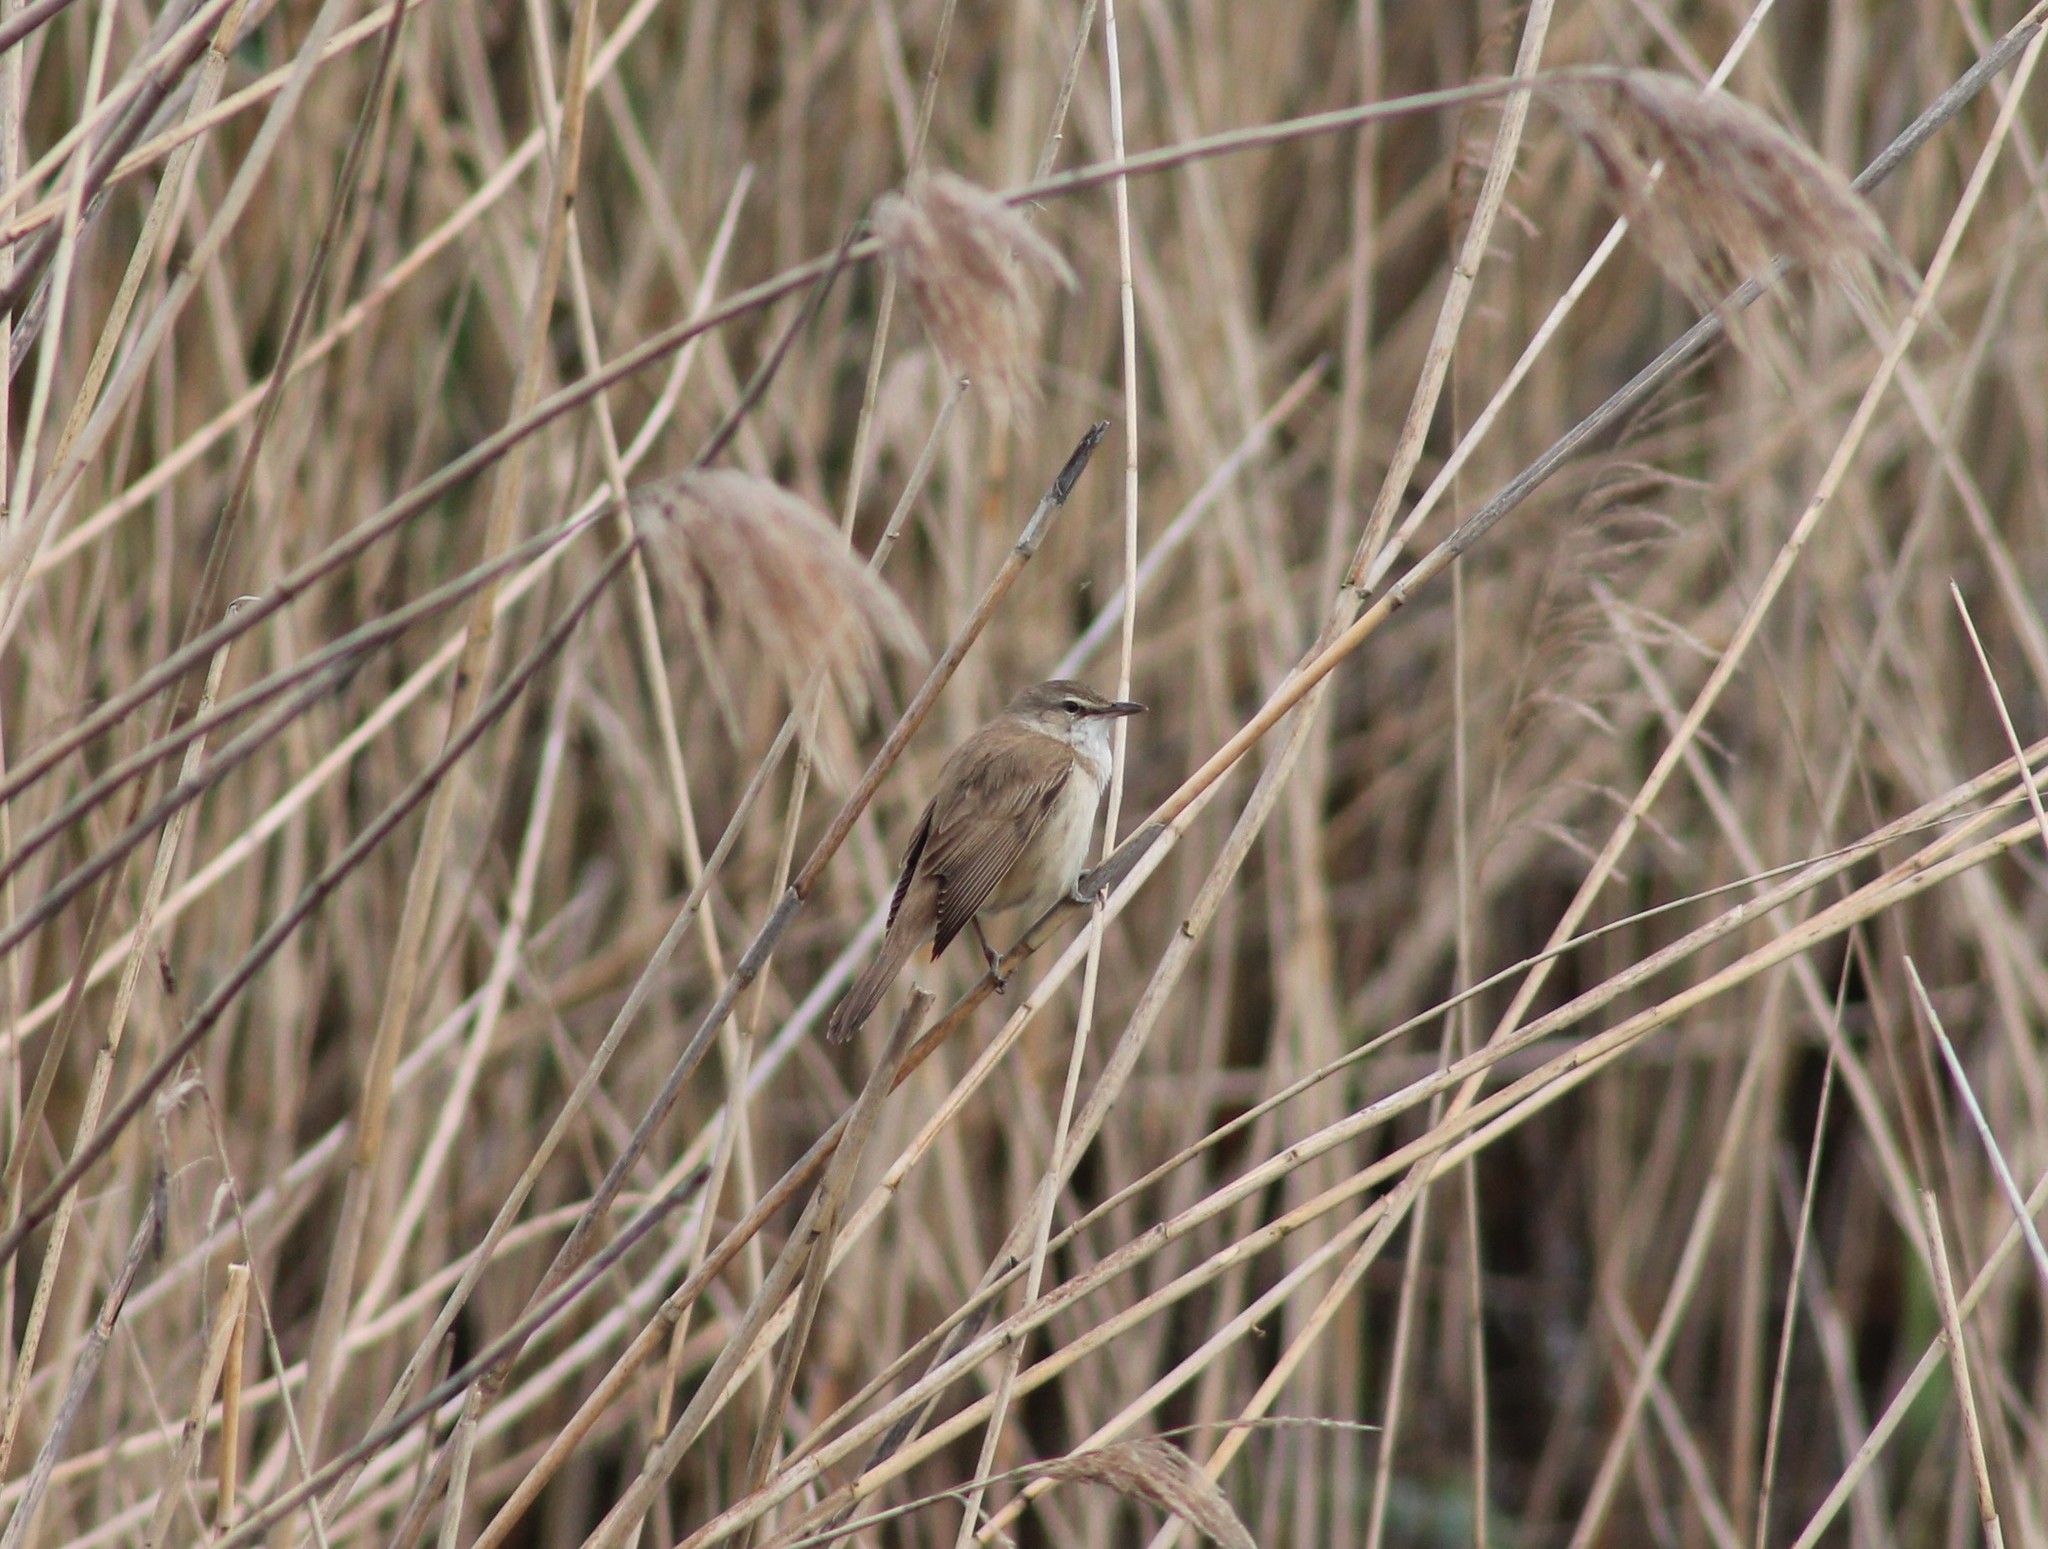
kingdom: Animalia
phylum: Chordata
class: Aves
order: Passeriformes
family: Acrocephalidae
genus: Acrocephalus
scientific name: Acrocephalus arundinaceus
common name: Great reed warbler
